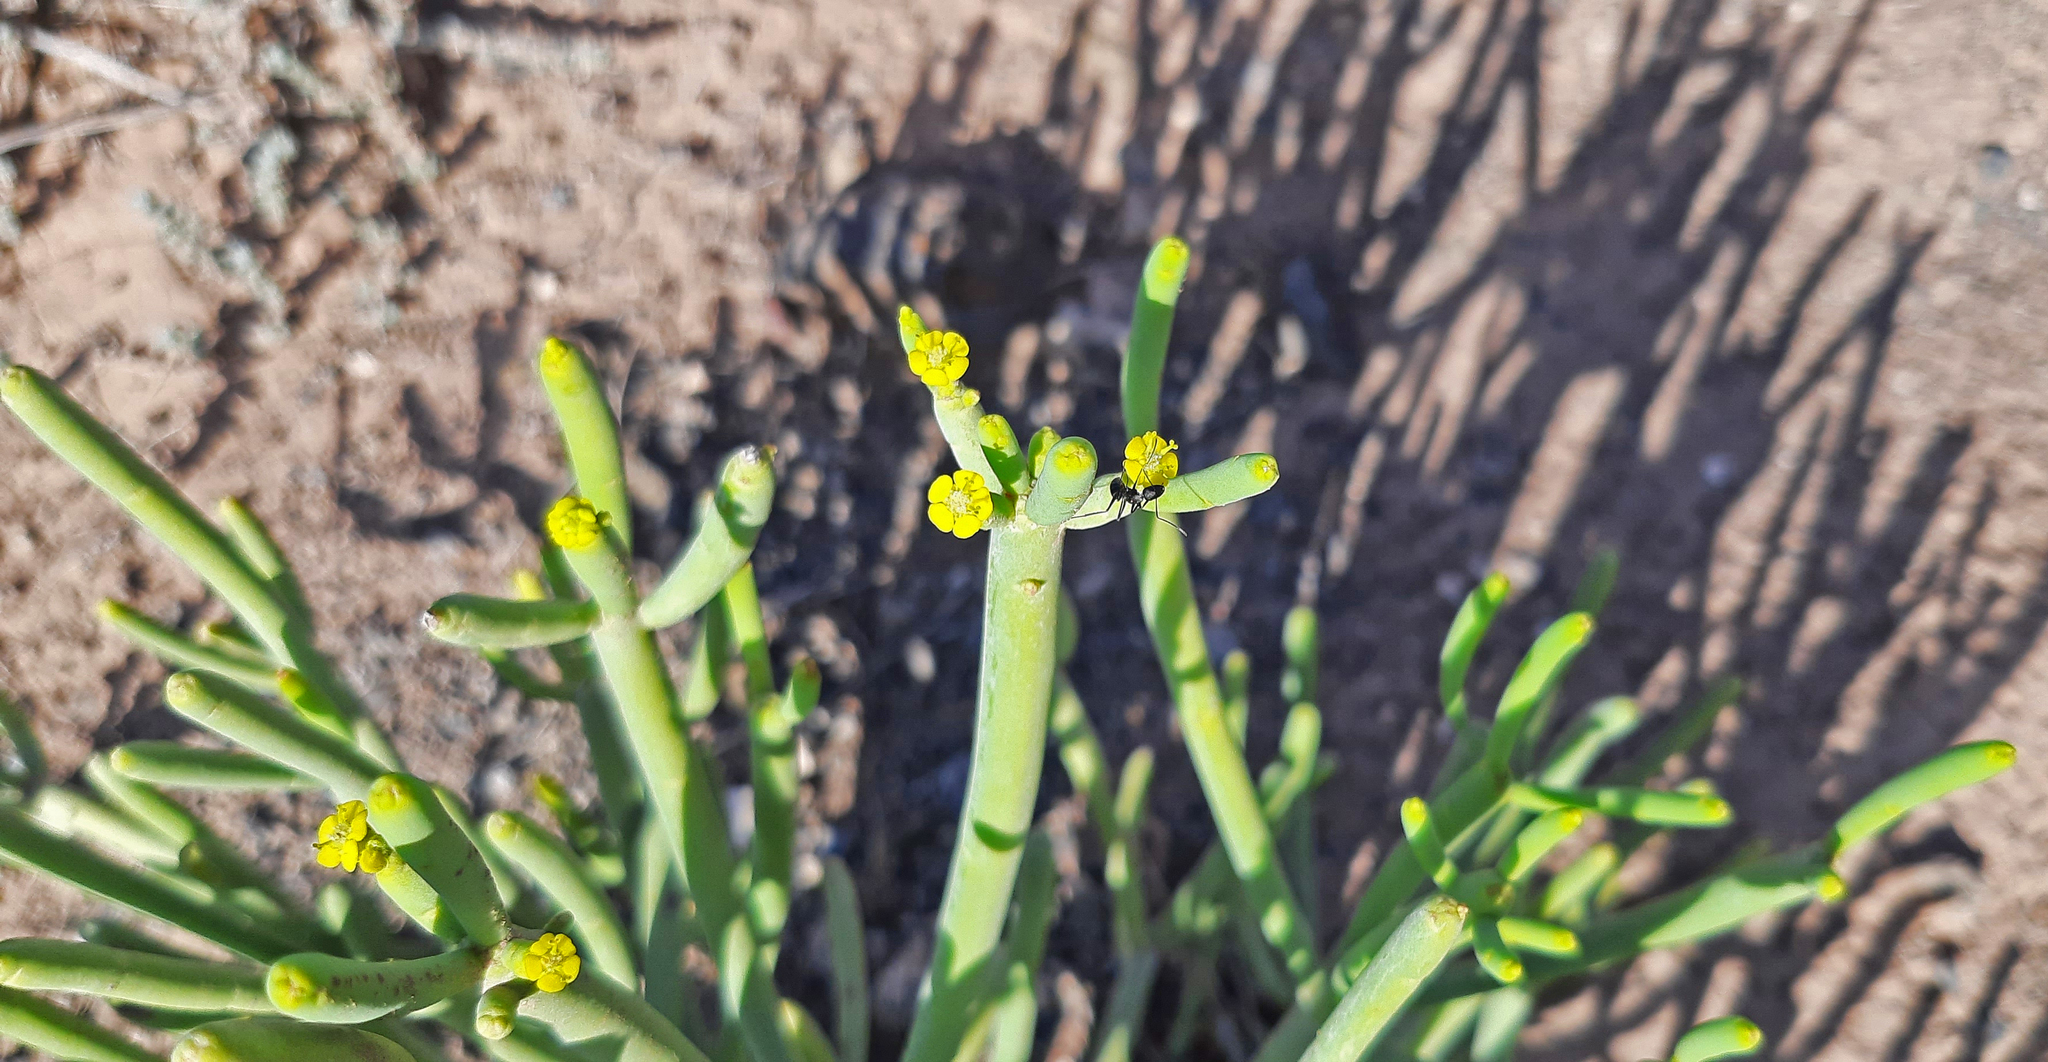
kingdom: Plantae
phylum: Tracheophyta
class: Magnoliopsida
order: Malpighiales
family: Euphorbiaceae
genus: Euphorbia
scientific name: Euphorbia aphylla
